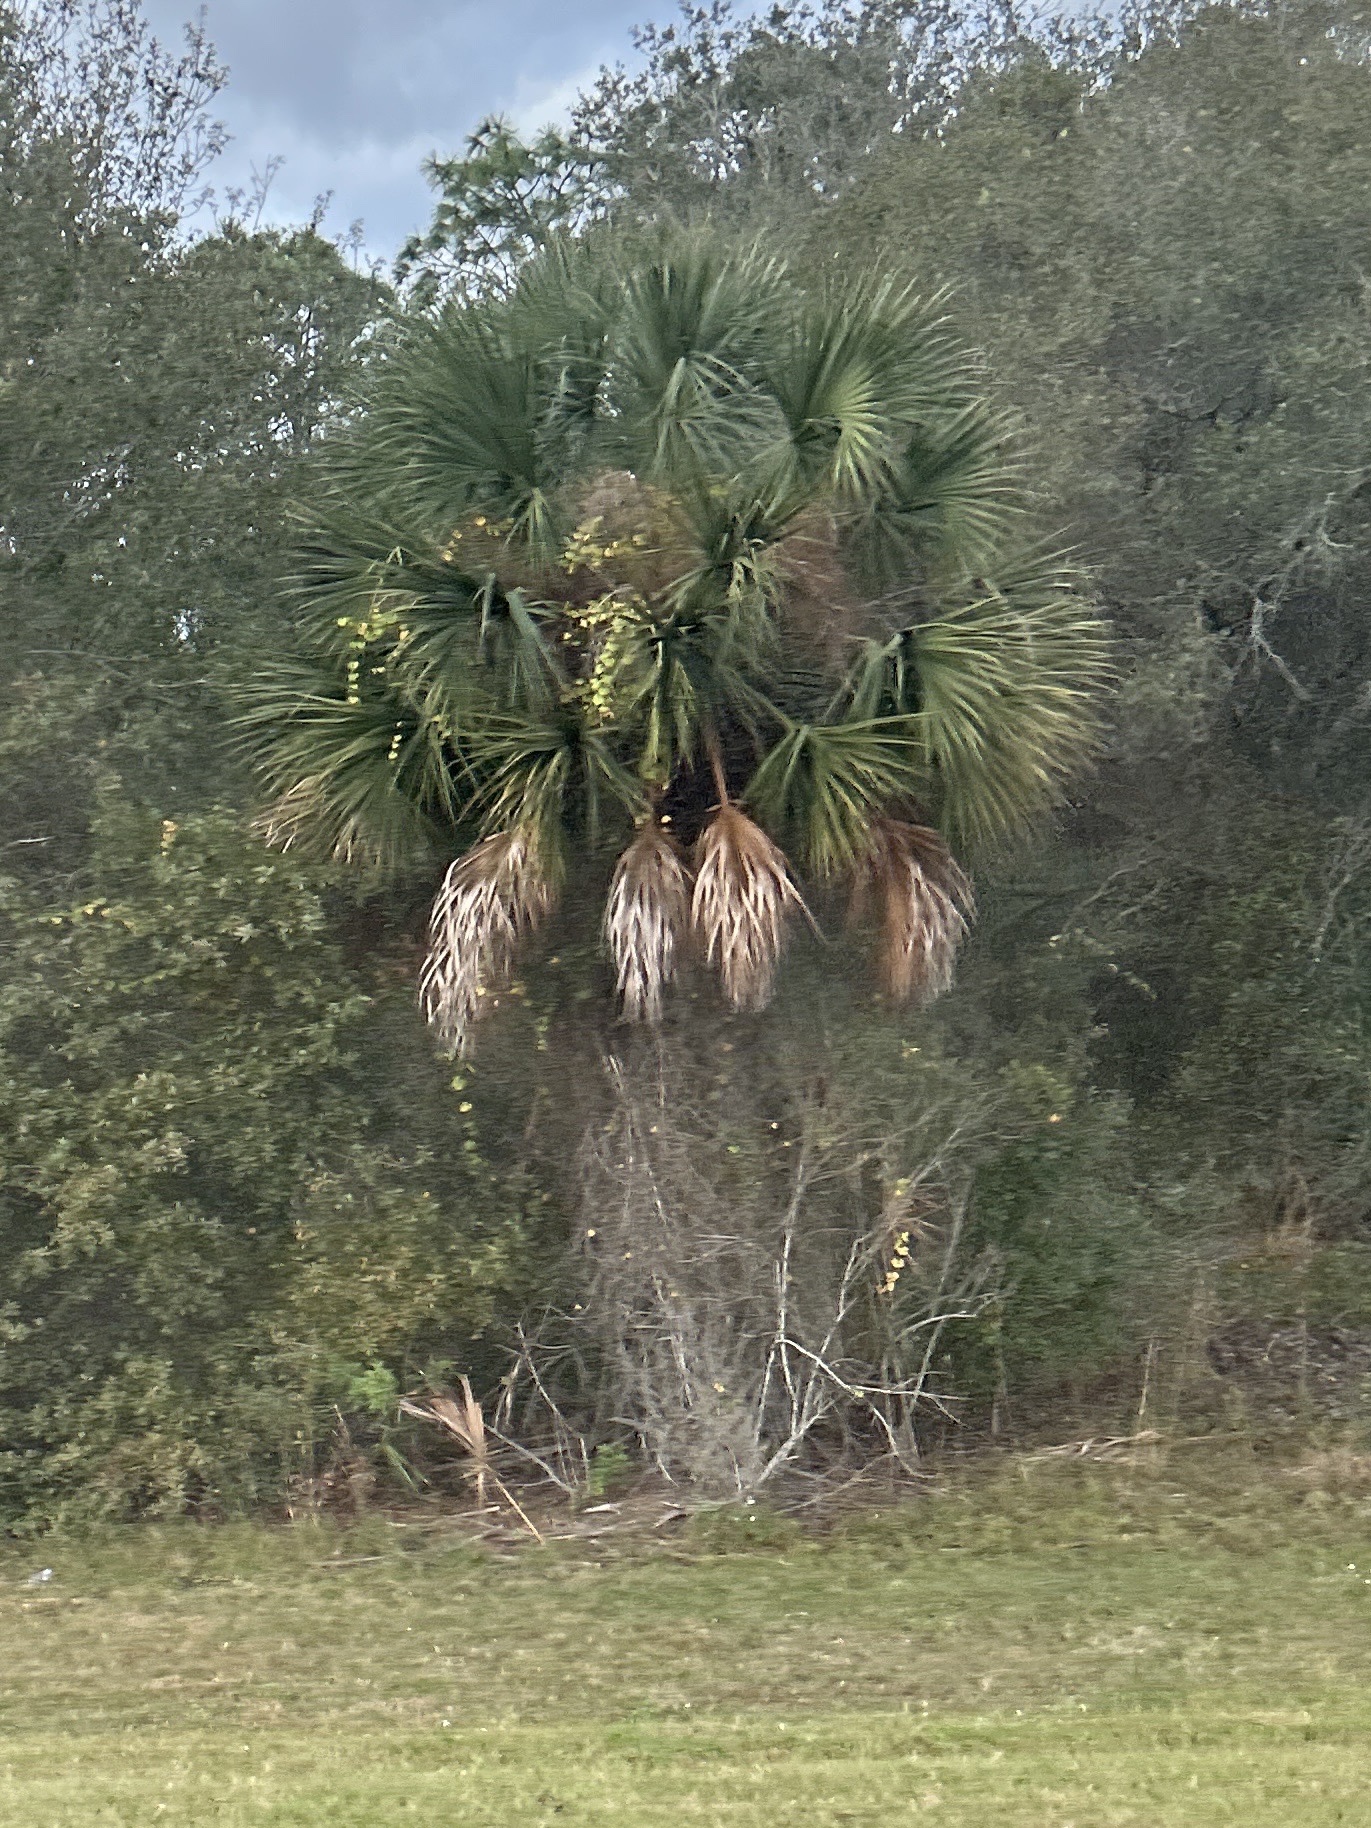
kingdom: Plantae
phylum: Tracheophyta
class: Liliopsida
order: Arecales
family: Arecaceae
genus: Sabal
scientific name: Sabal palmetto
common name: Blue palmetto
